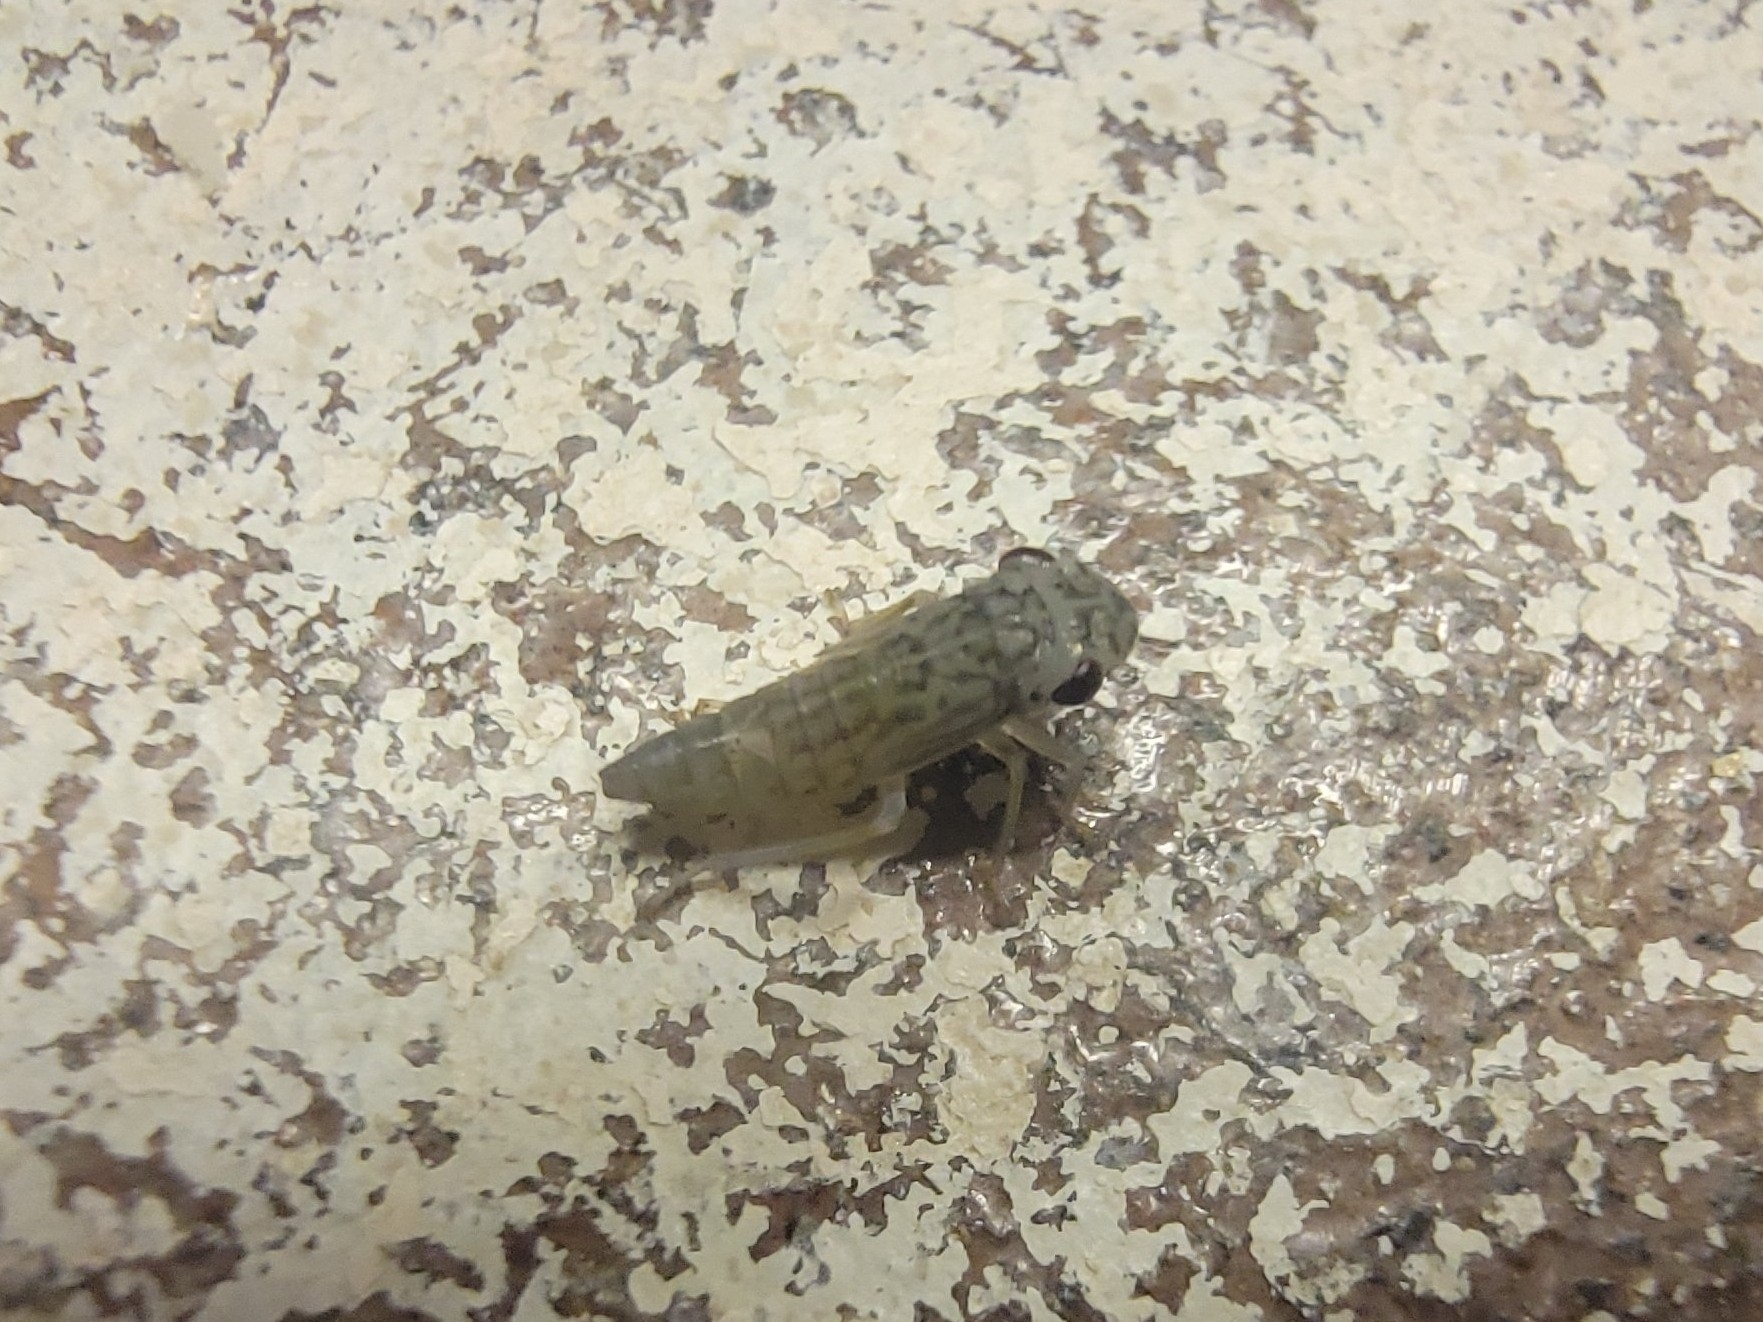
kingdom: Animalia
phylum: Arthropoda
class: Insecta
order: Hemiptera
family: Cicadellidae
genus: Oncometopia
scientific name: Oncometopia orbona
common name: Broad-headed sharpshooter
